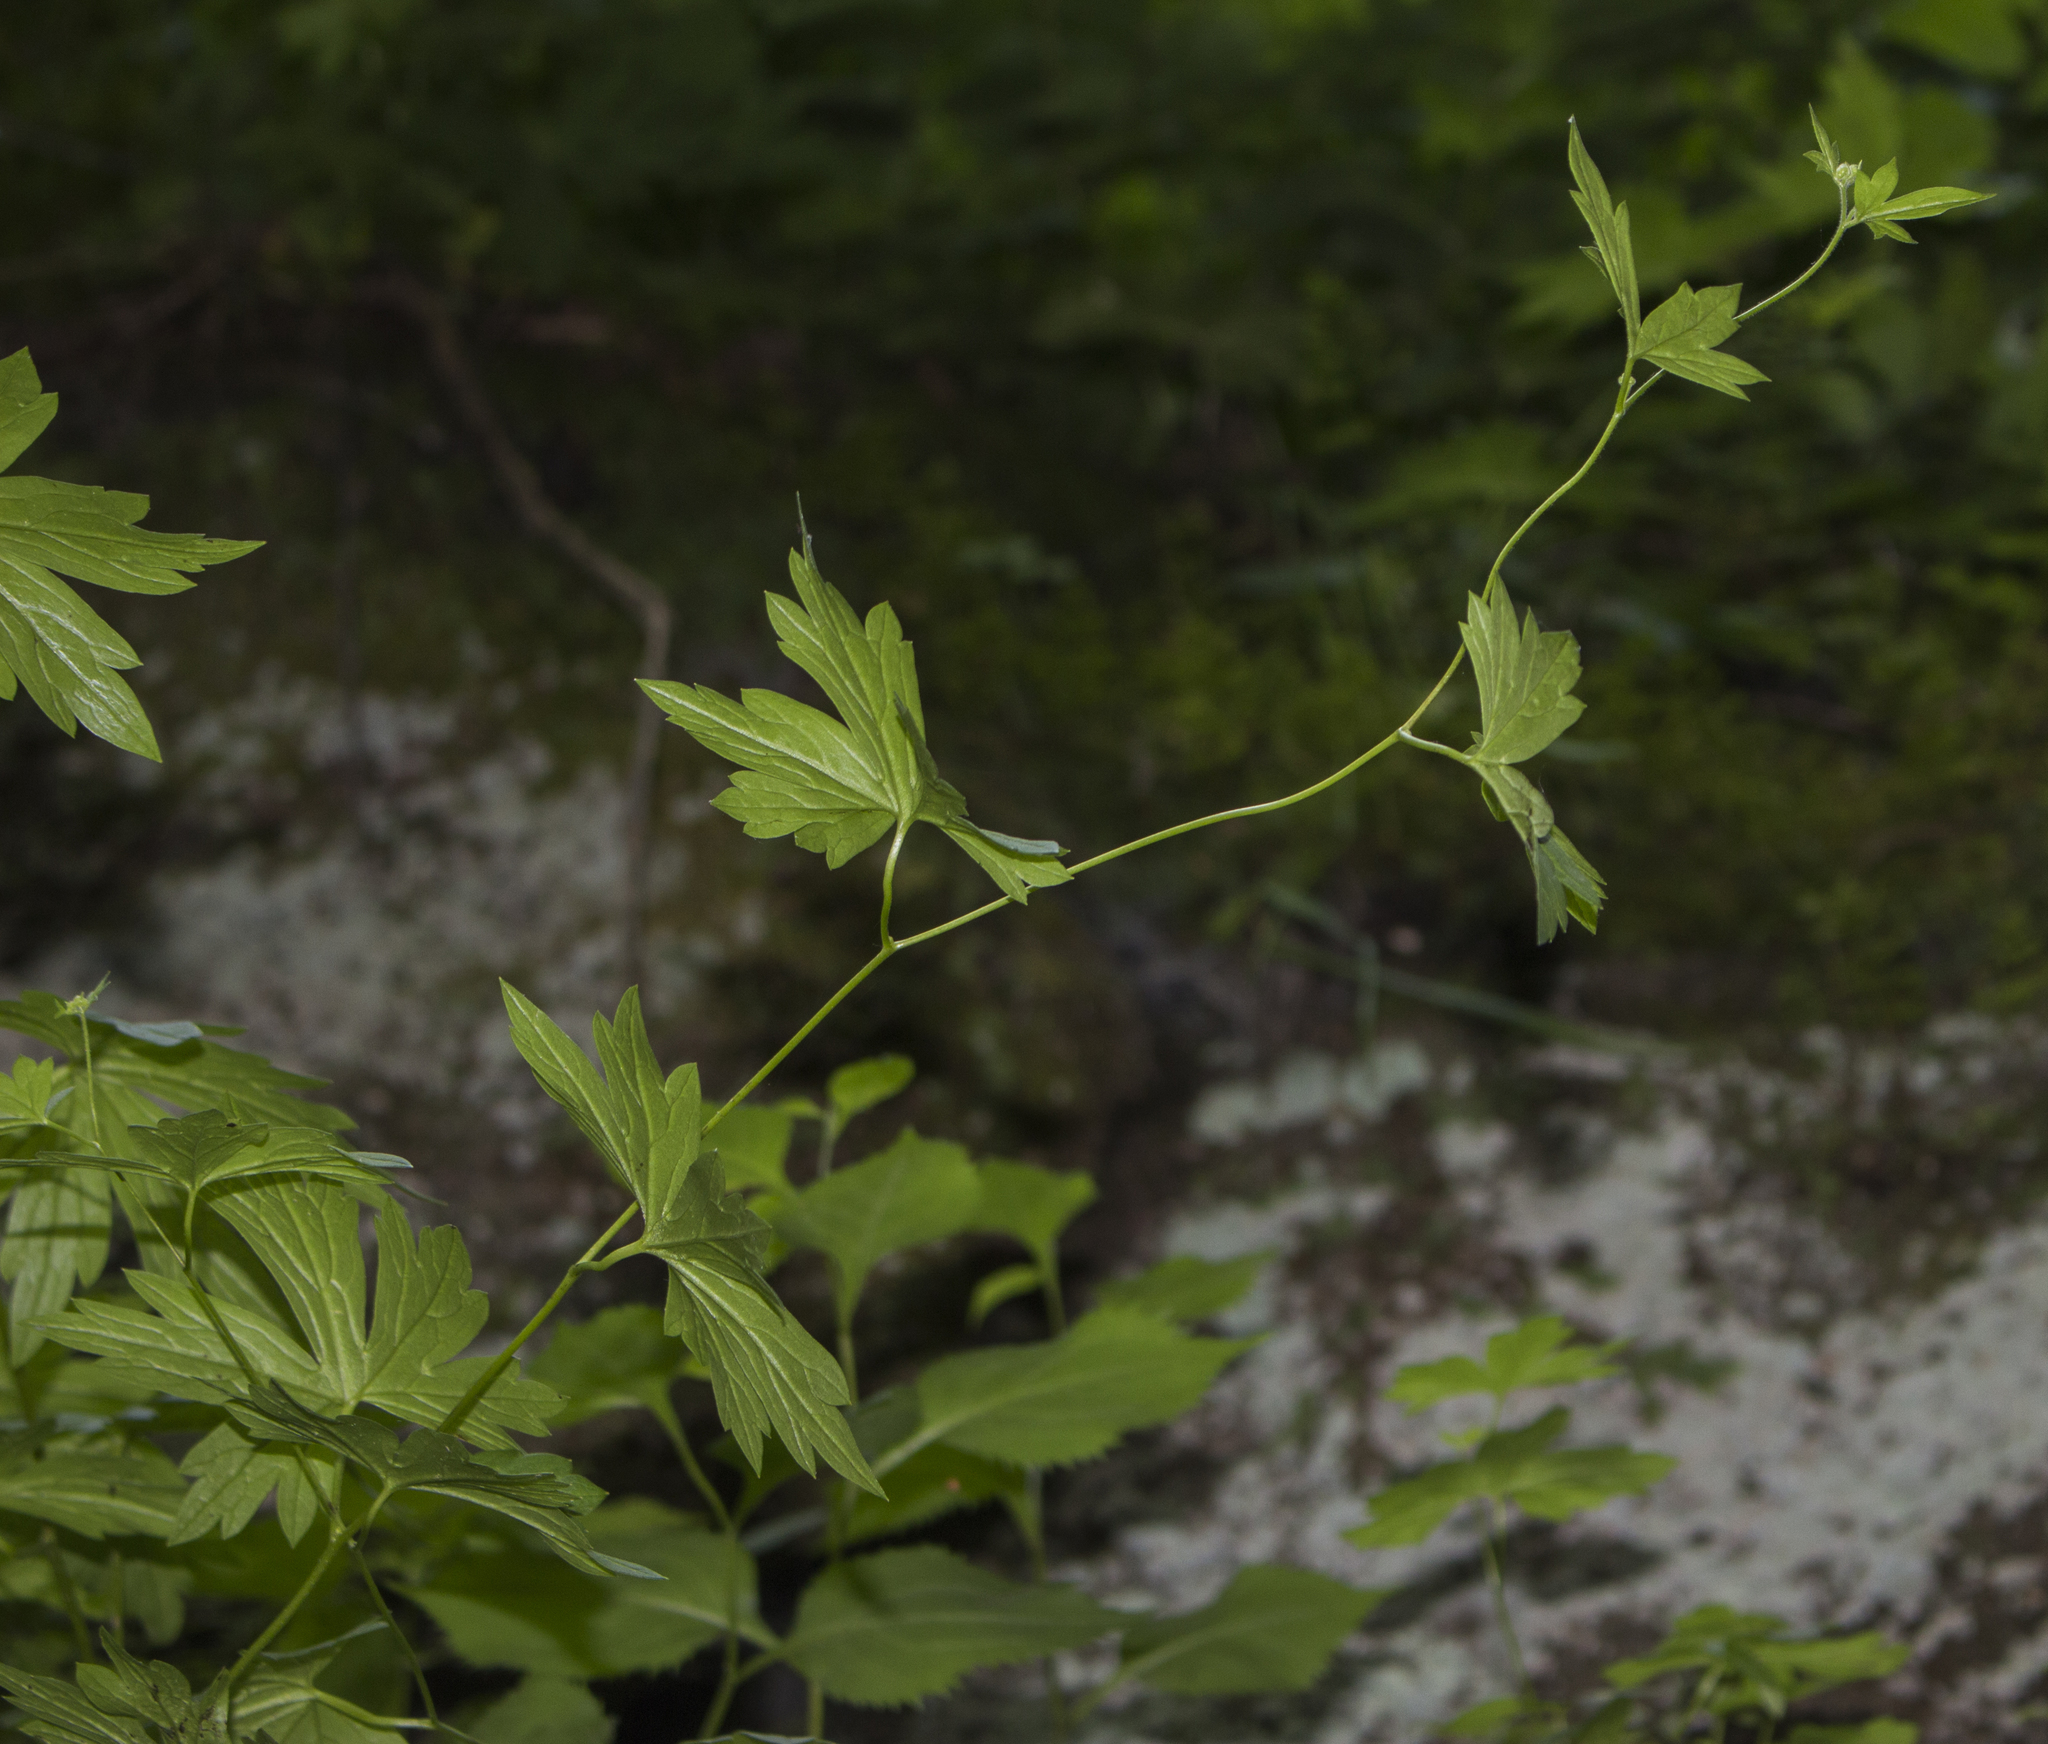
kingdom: Plantae
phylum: Tracheophyta
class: Magnoliopsida
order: Ranunculales
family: Ranunculaceae
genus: Aconitum
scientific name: Aconitum noveboracense
